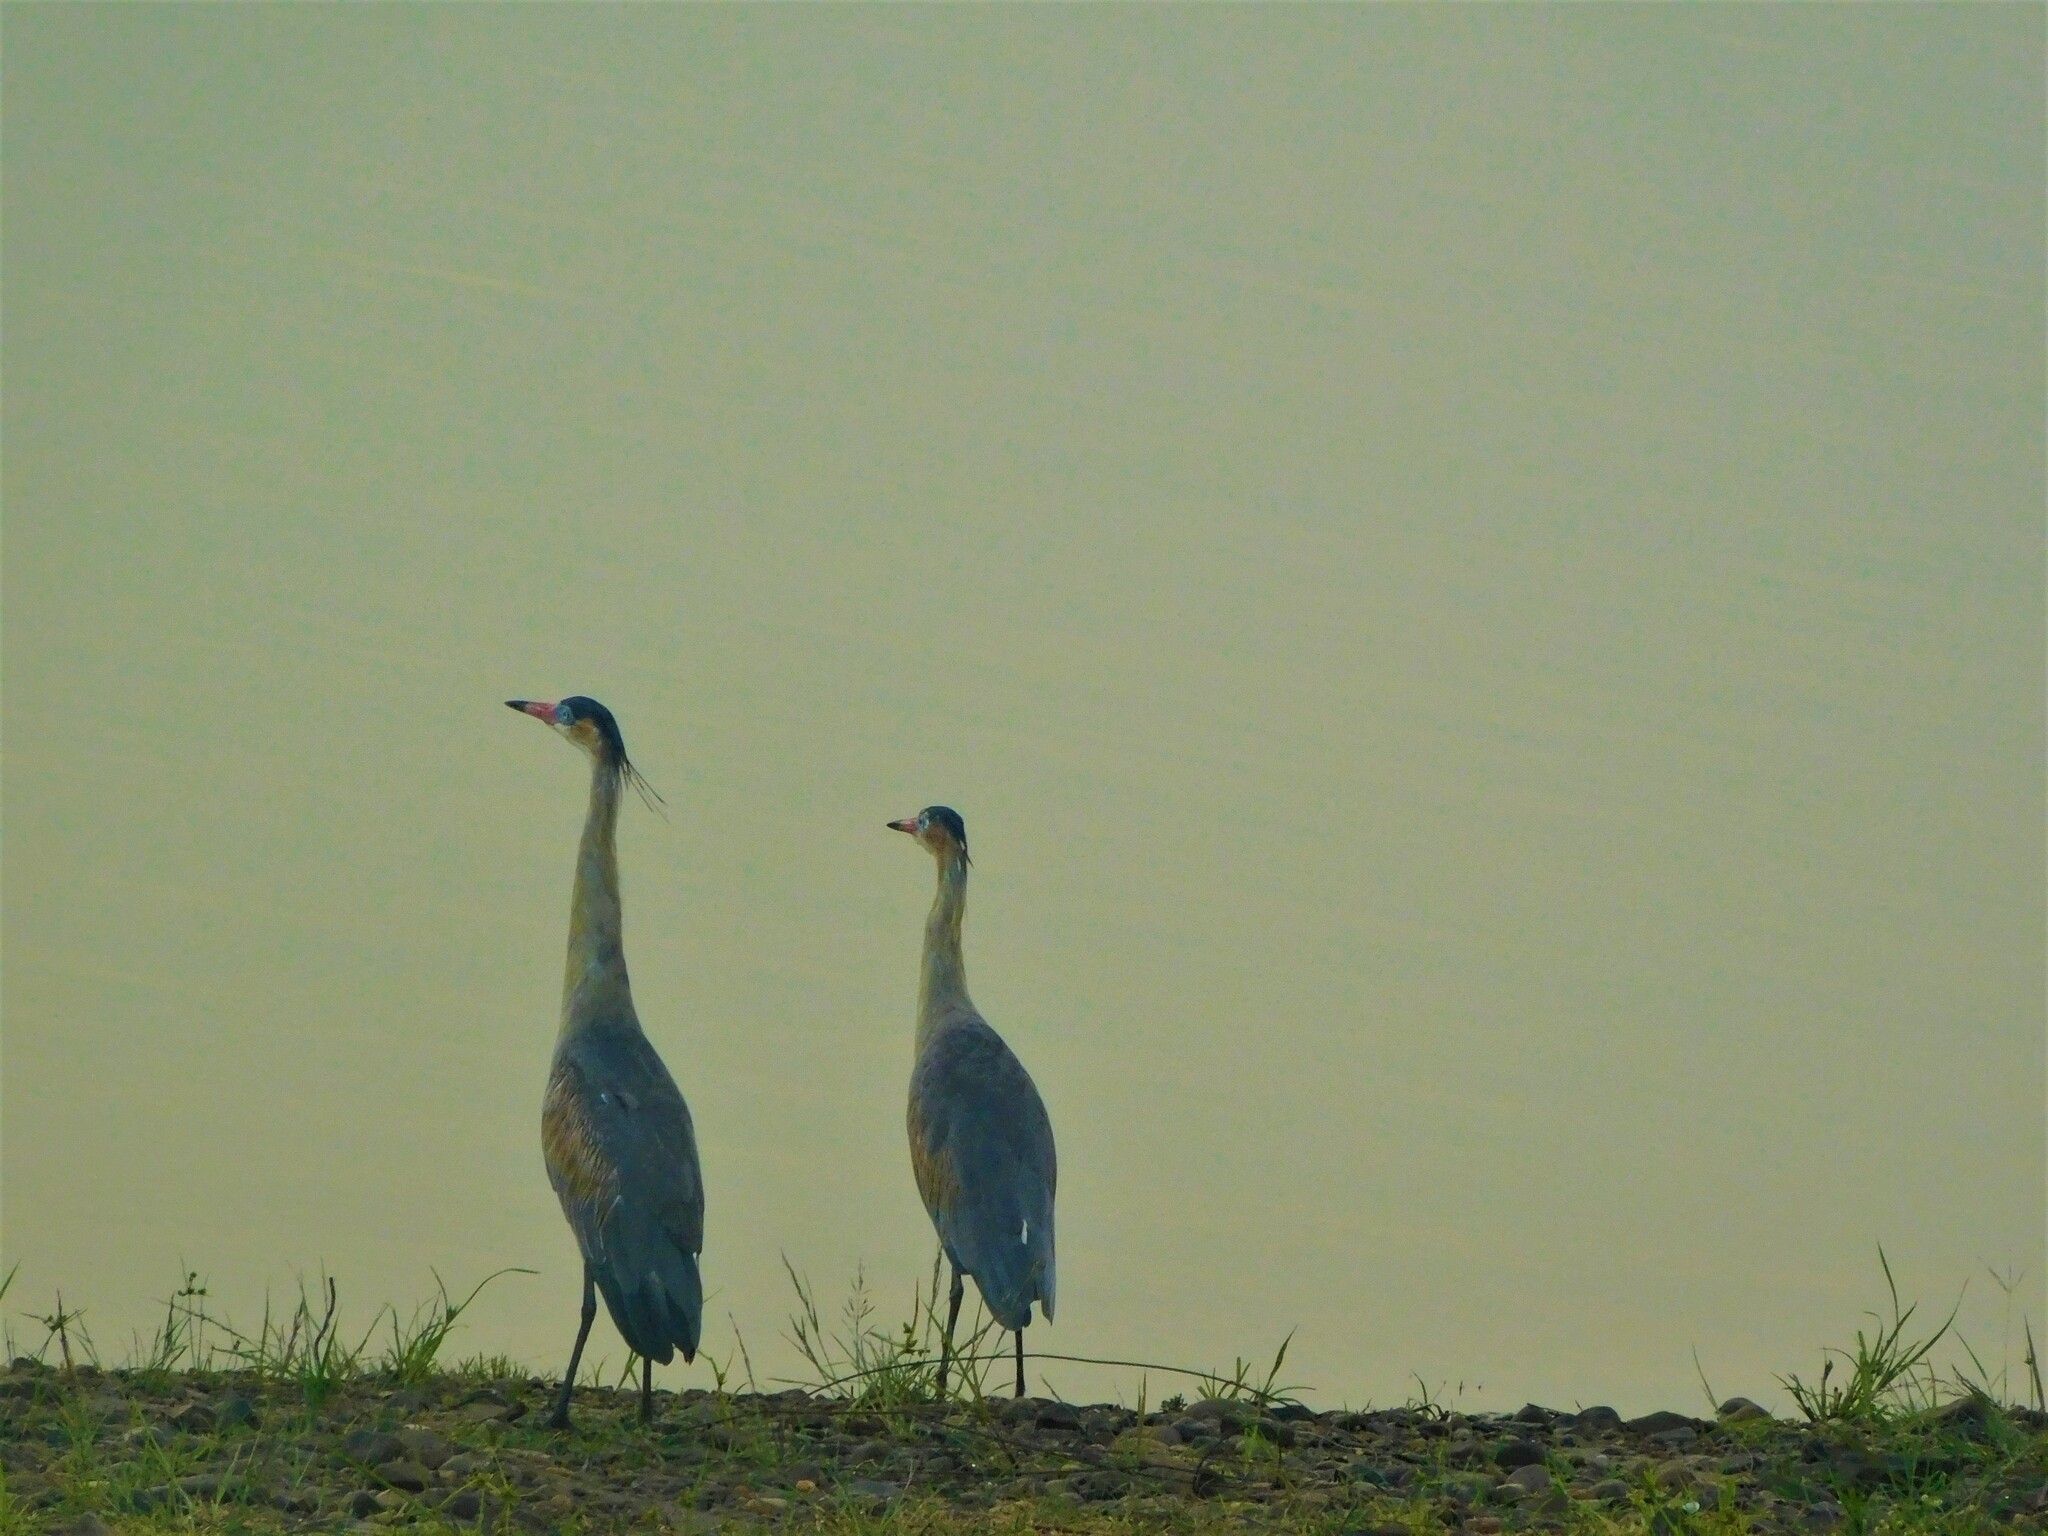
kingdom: Animalia
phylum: Chordata
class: Aves
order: Pelecaniformes
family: Ardeidae
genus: Syrigma
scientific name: Syrigma sibilatrix
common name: Whistling heron
